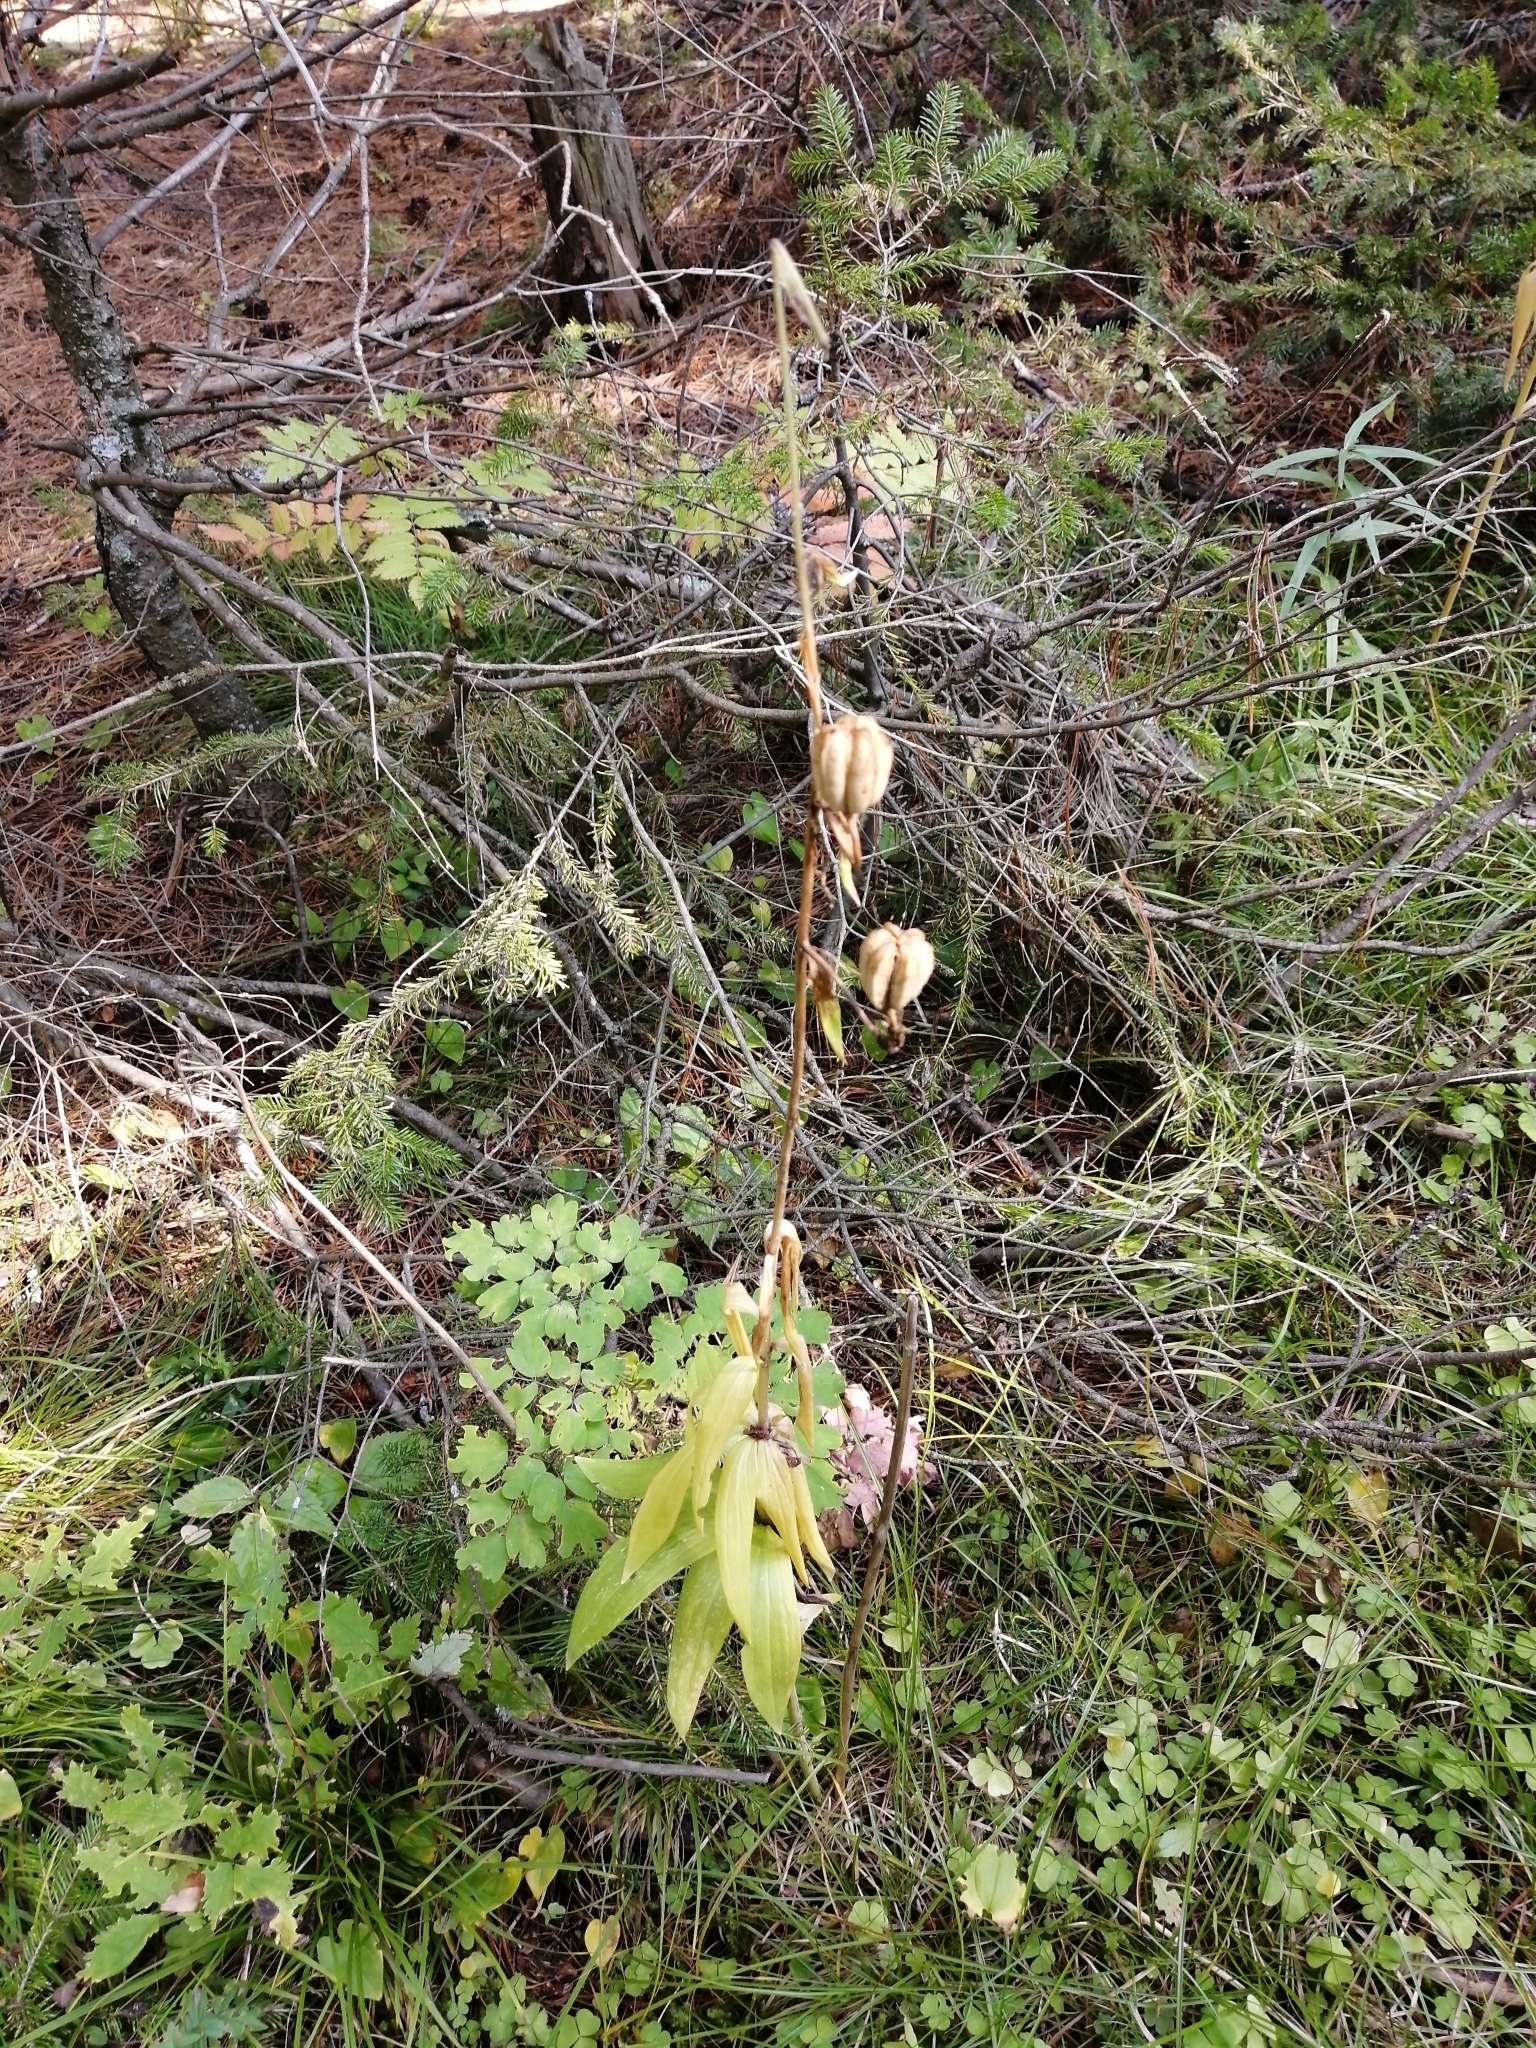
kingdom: Plantae
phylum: Tracheophyta
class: Liliopsida
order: Liliales
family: Liliaceae
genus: Lilium
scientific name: Lilium martagon
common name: Martagon lily
